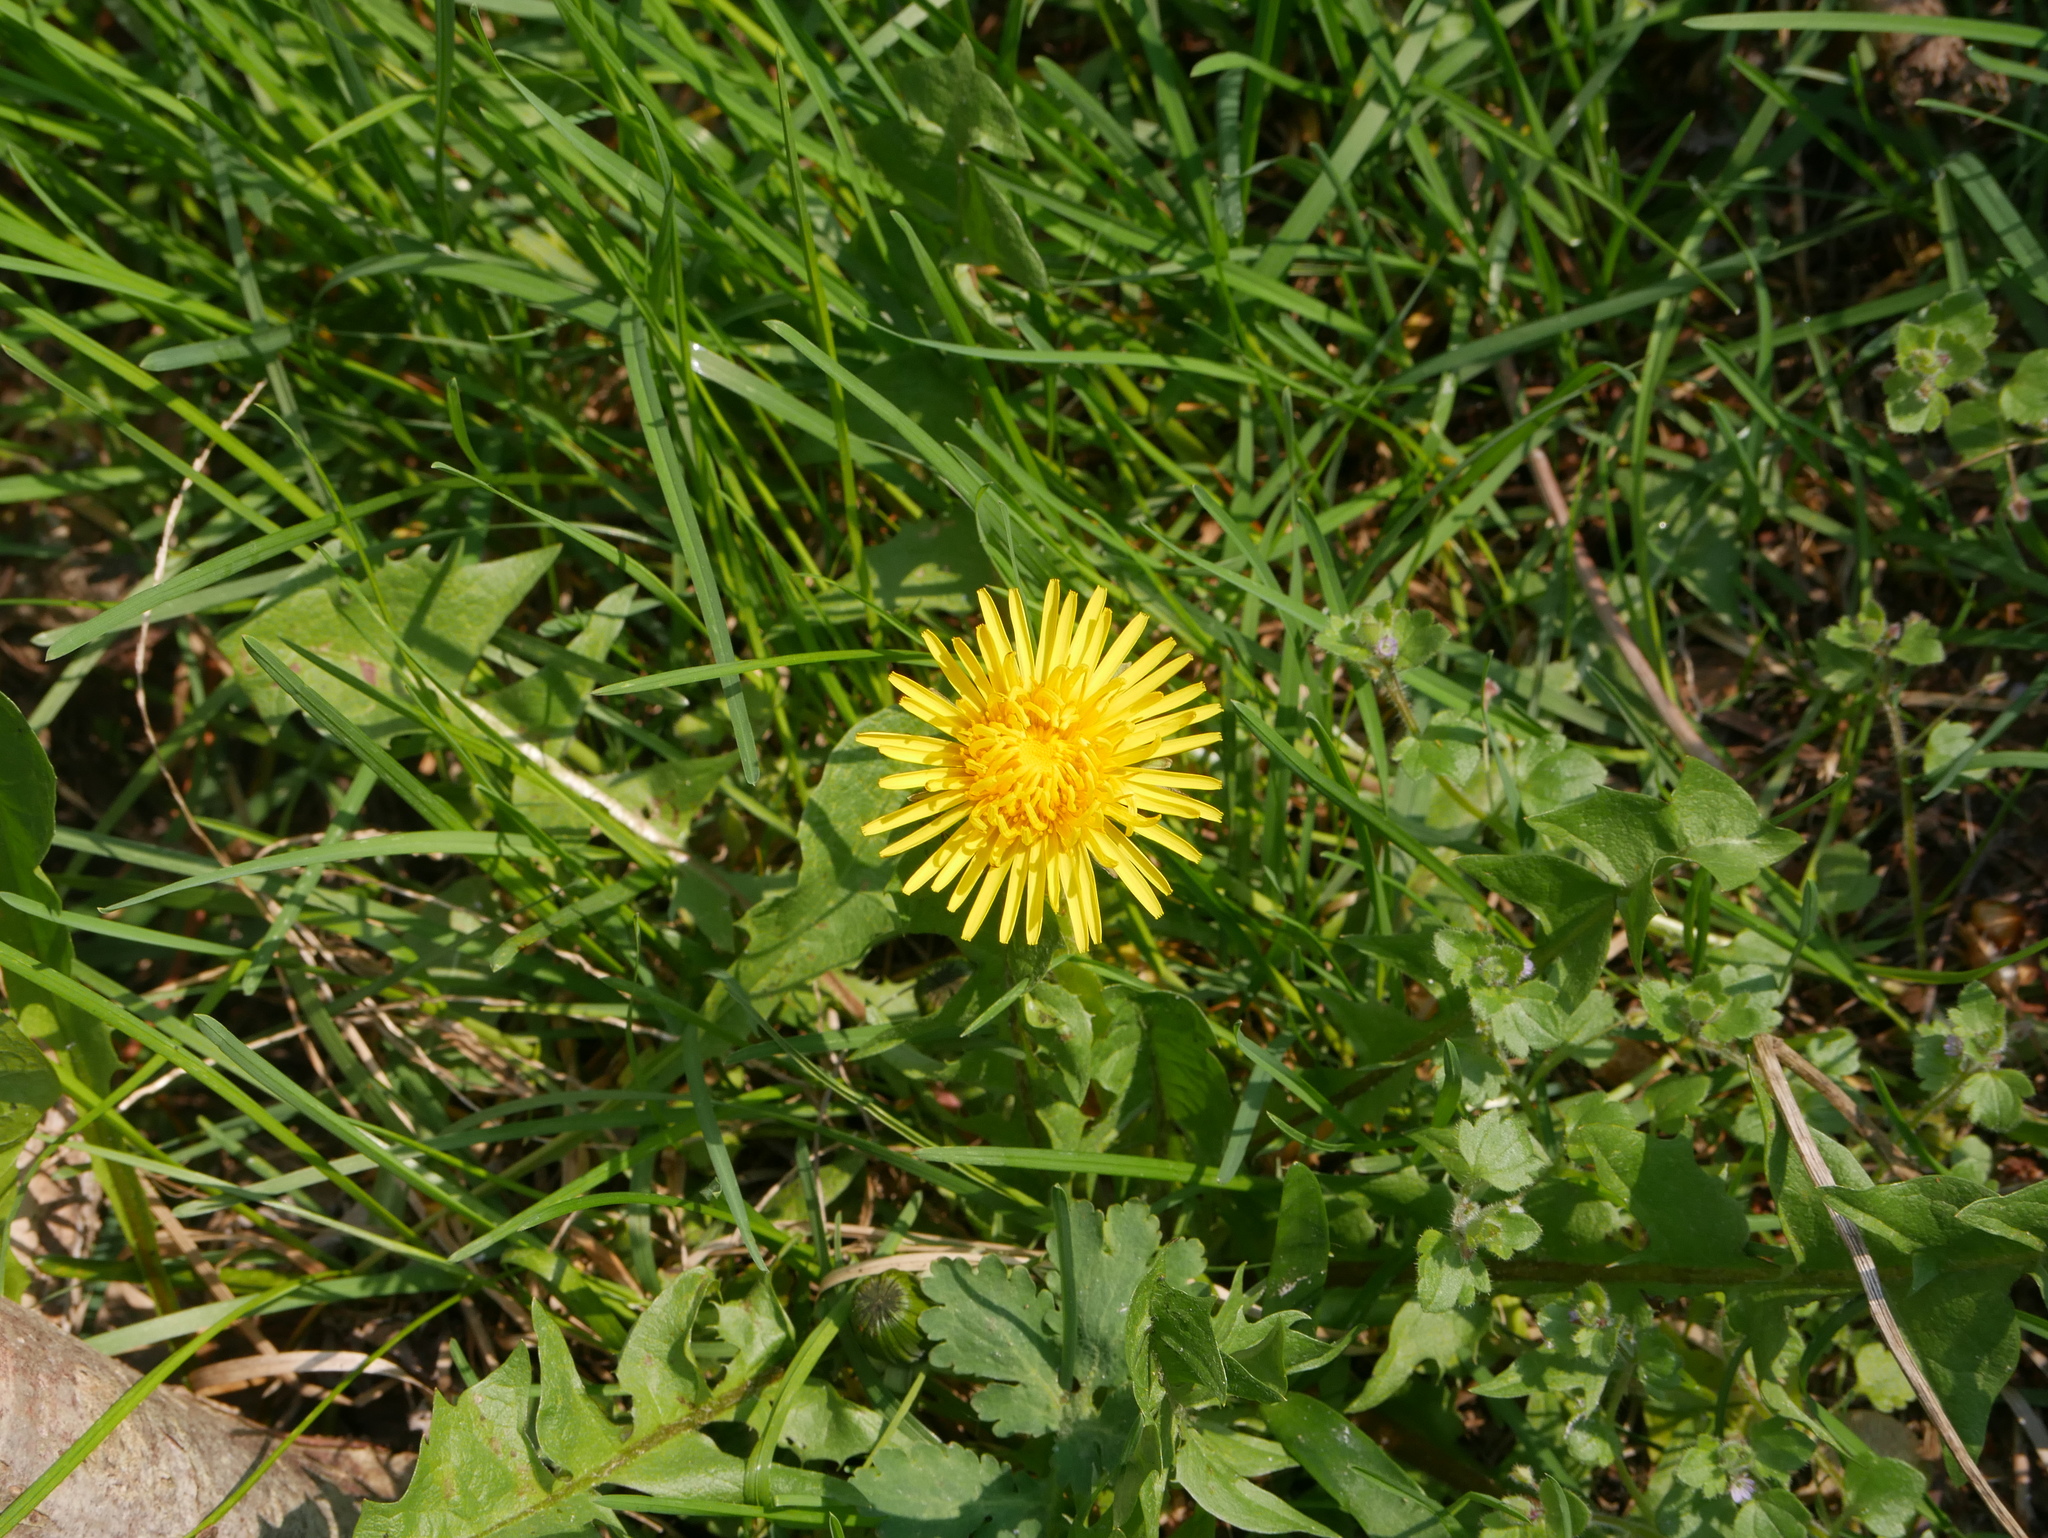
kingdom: Plantae
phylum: Tracheophyta
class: Magnoliopsida
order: Asterales
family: Asteraceae
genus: Taraxacum
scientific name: Taraxacum officinale
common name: Common dandelion
